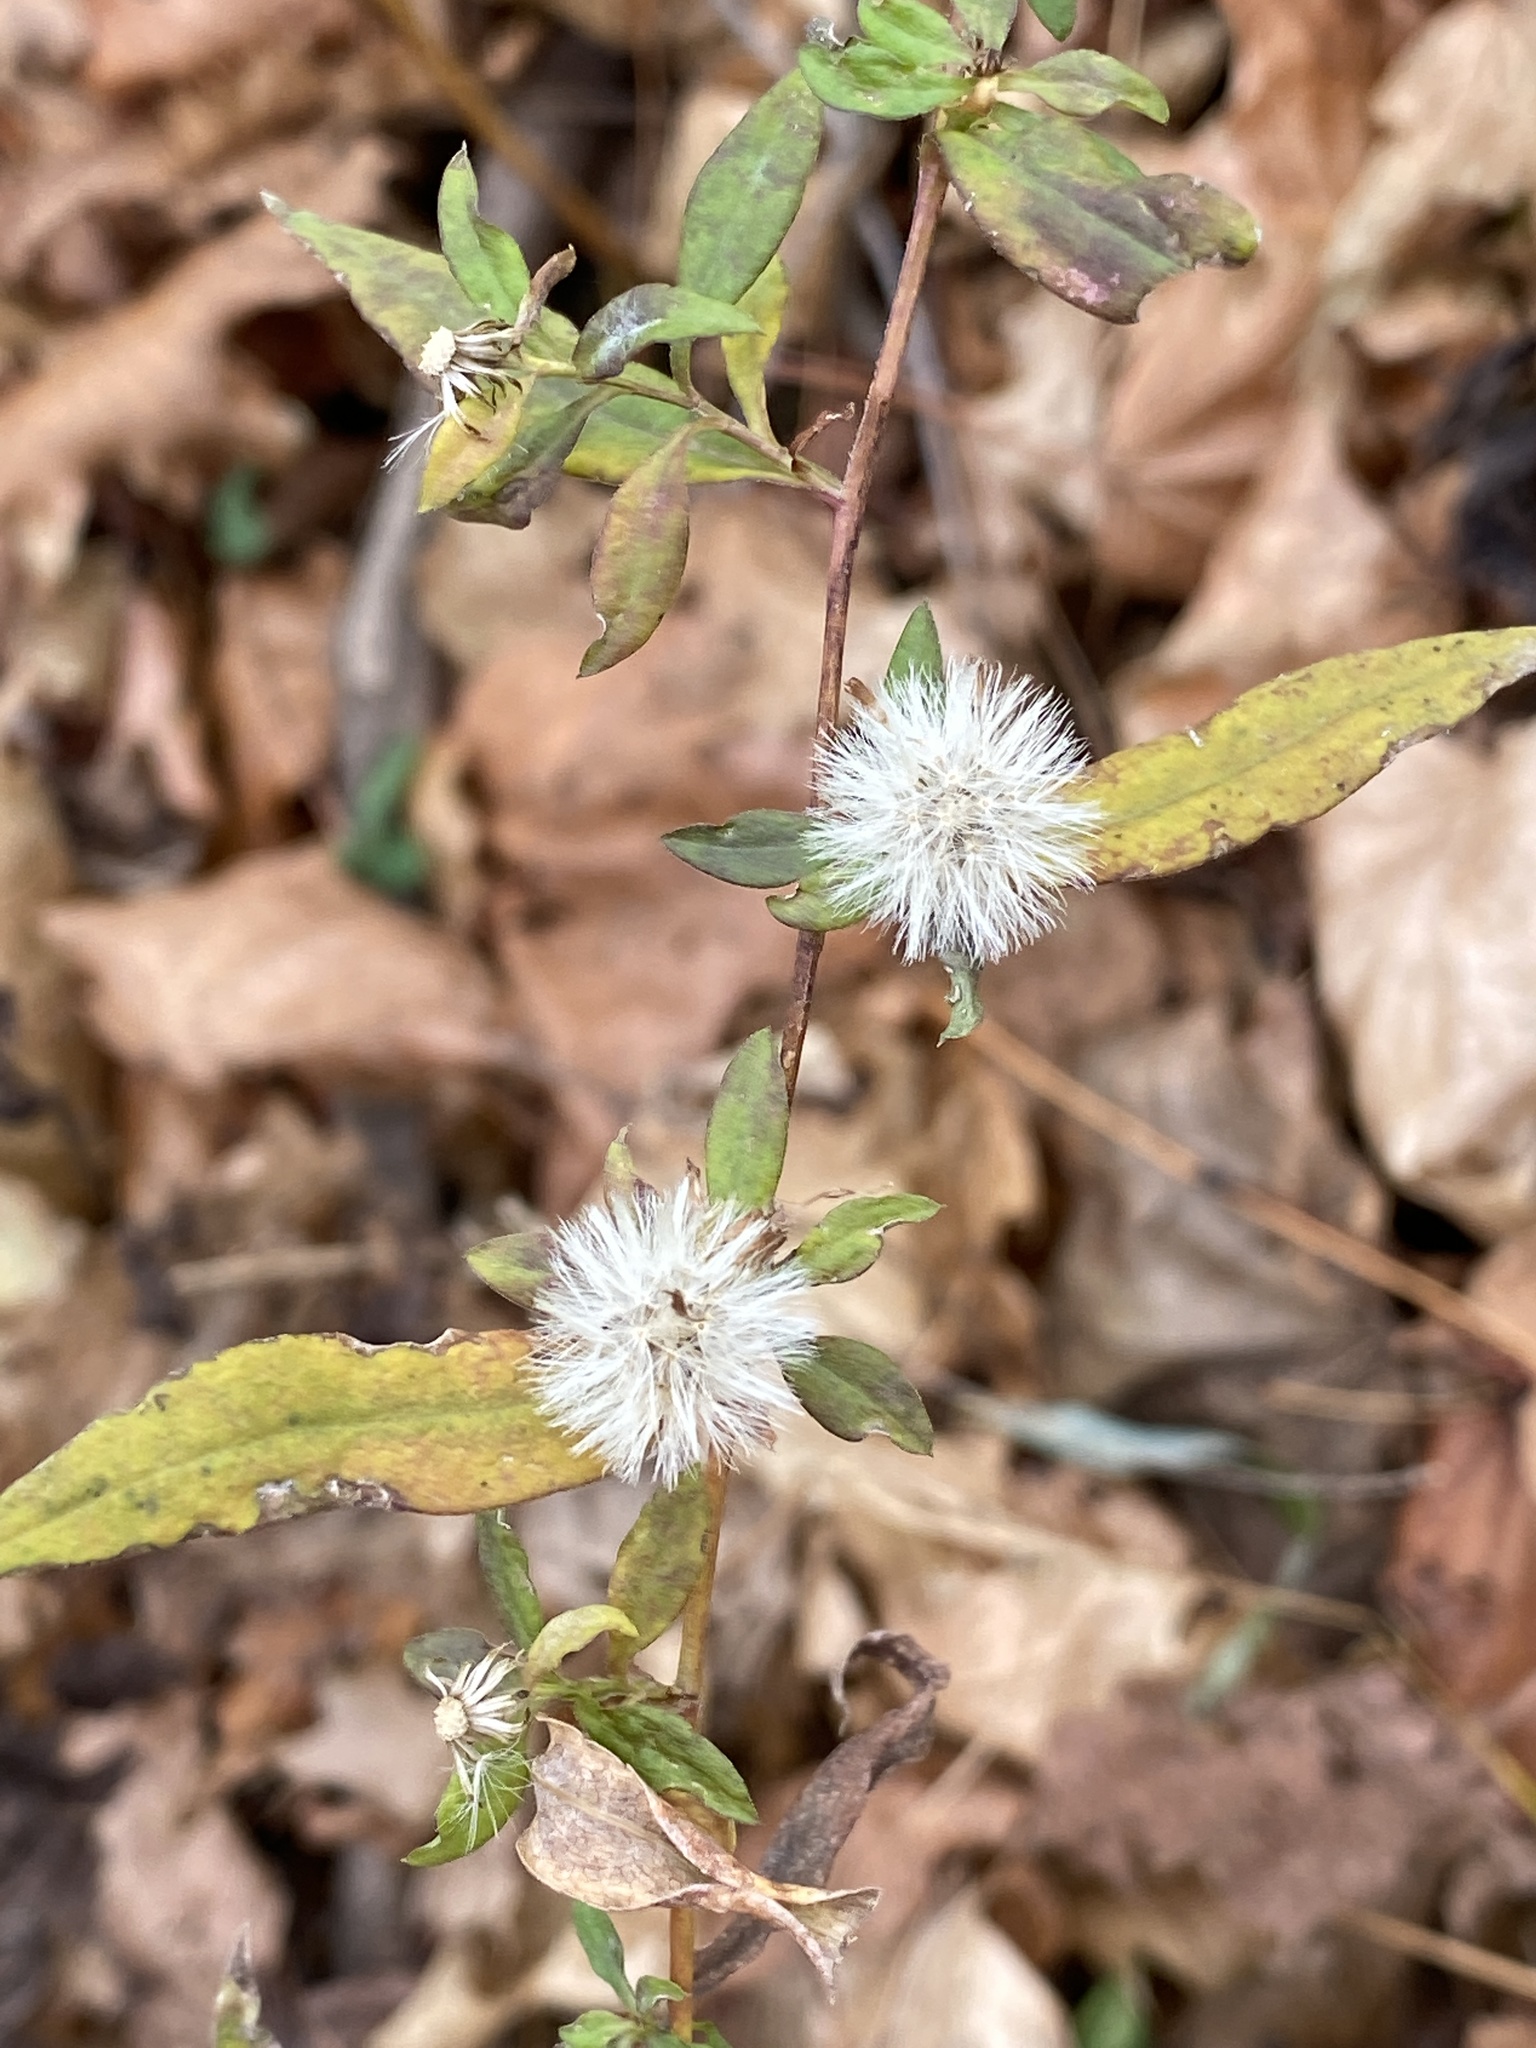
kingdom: Plantae
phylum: Tracheophyta
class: Magnoliopsida
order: Asterales
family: Asteraceae
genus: Solidago
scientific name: Solidago caesia
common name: Woodland goldenrod
